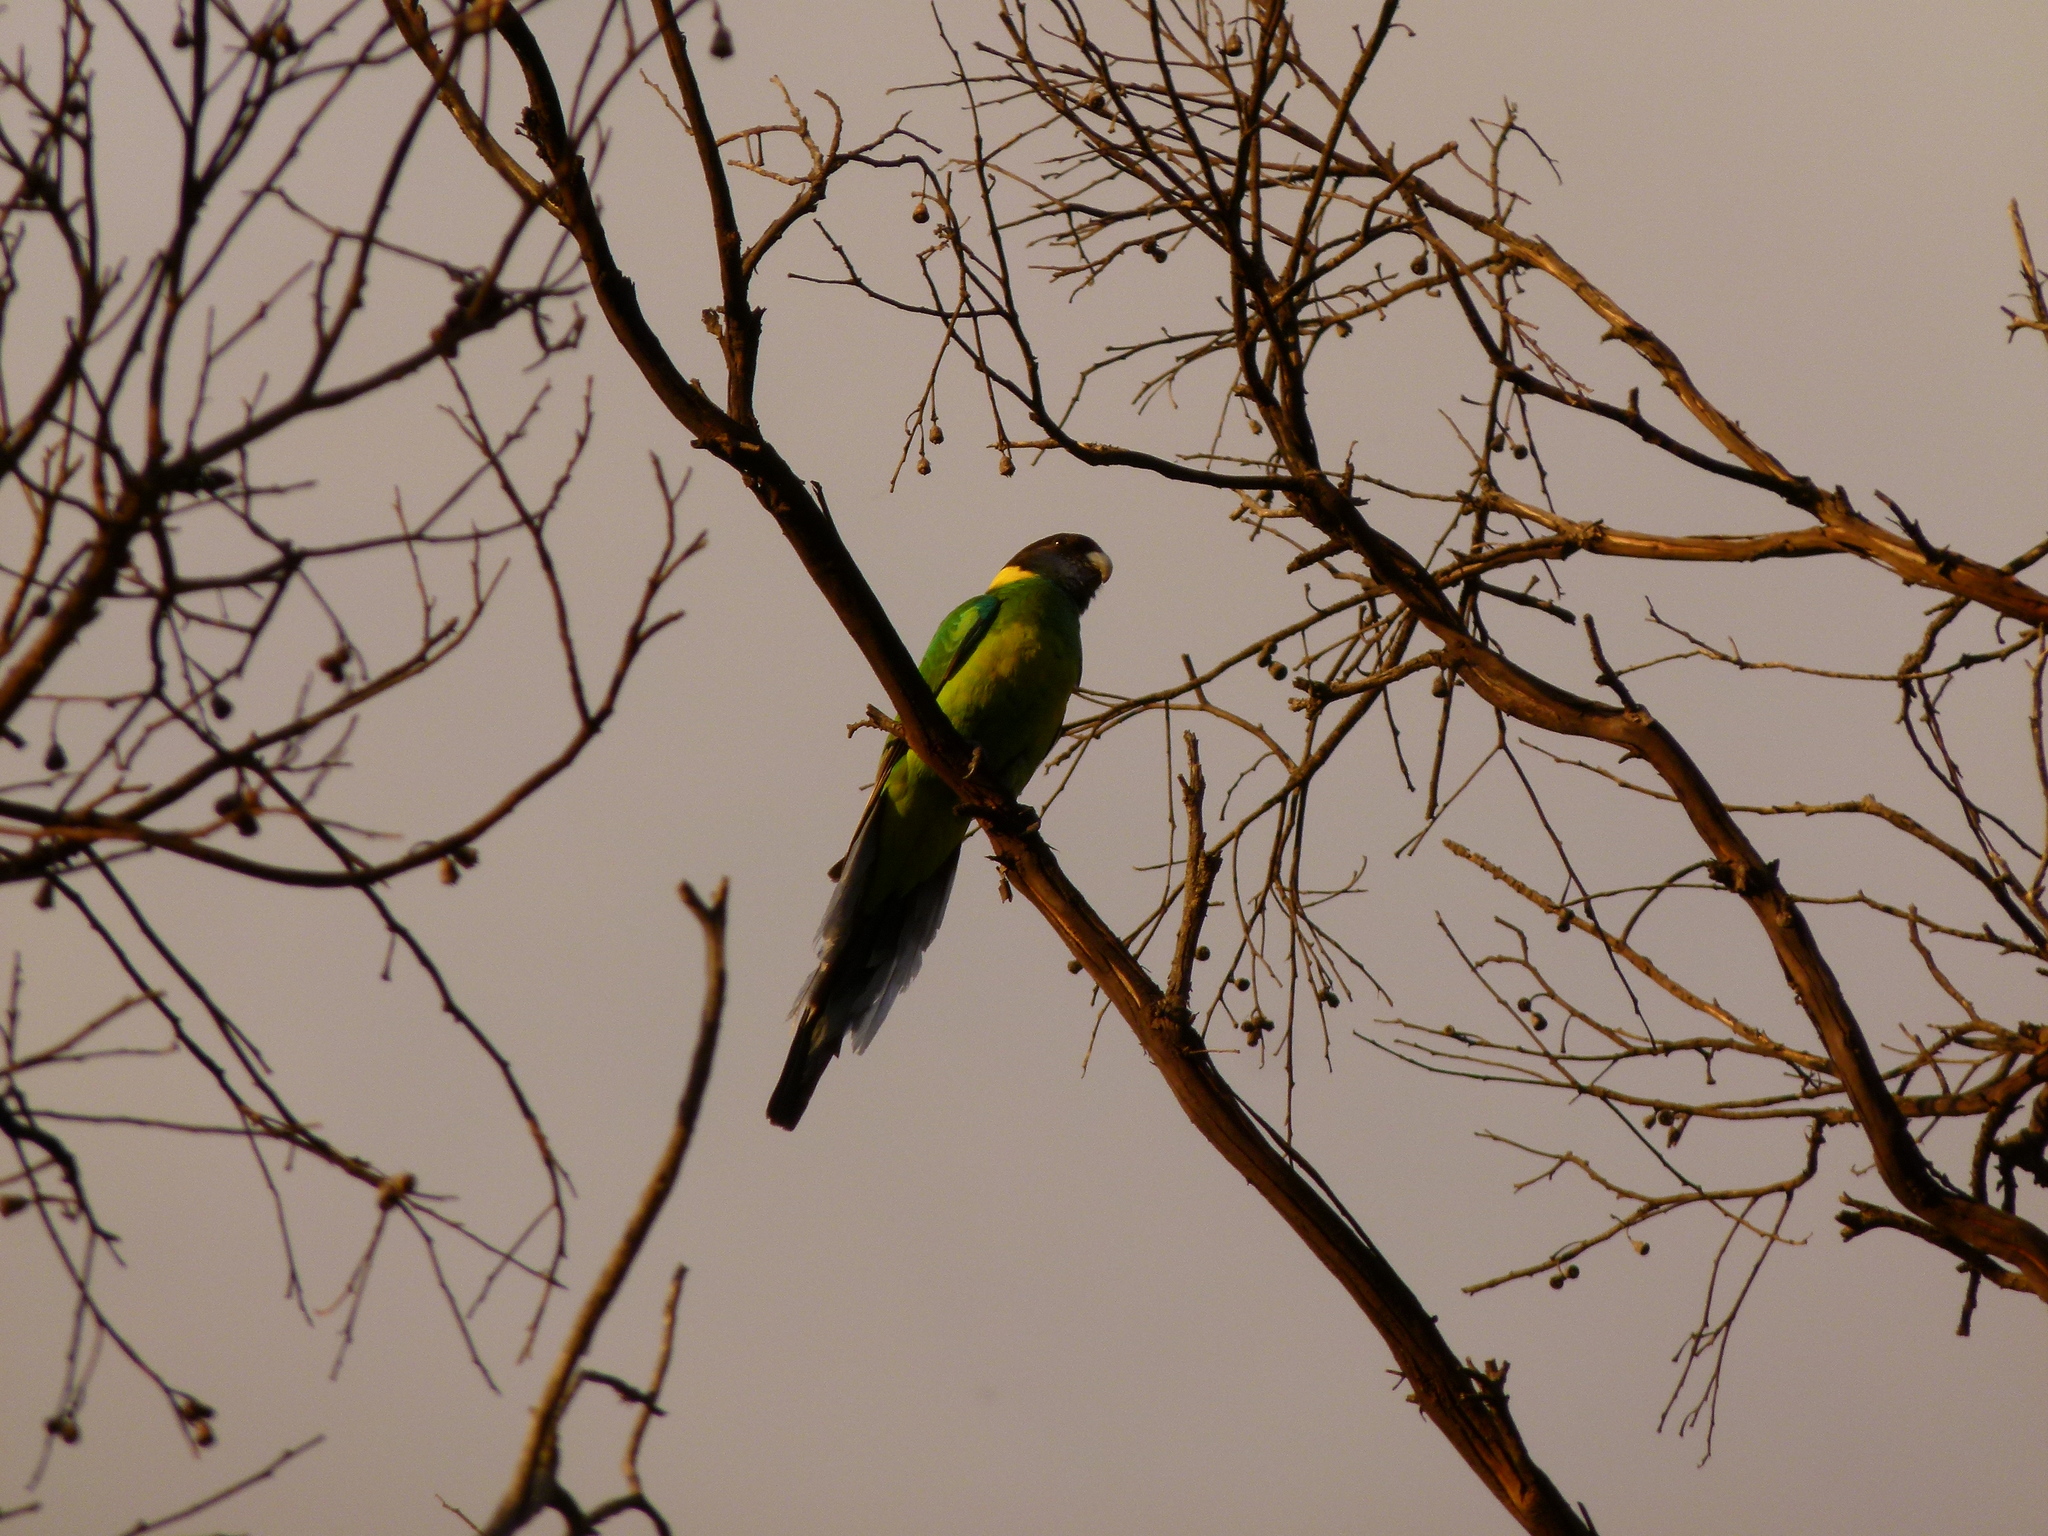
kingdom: Animalia
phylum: Chordata
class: Aves
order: Psittaciformes
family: Psittacidae
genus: Barnardius
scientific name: Barnardius zonarius
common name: Australian ringneck
